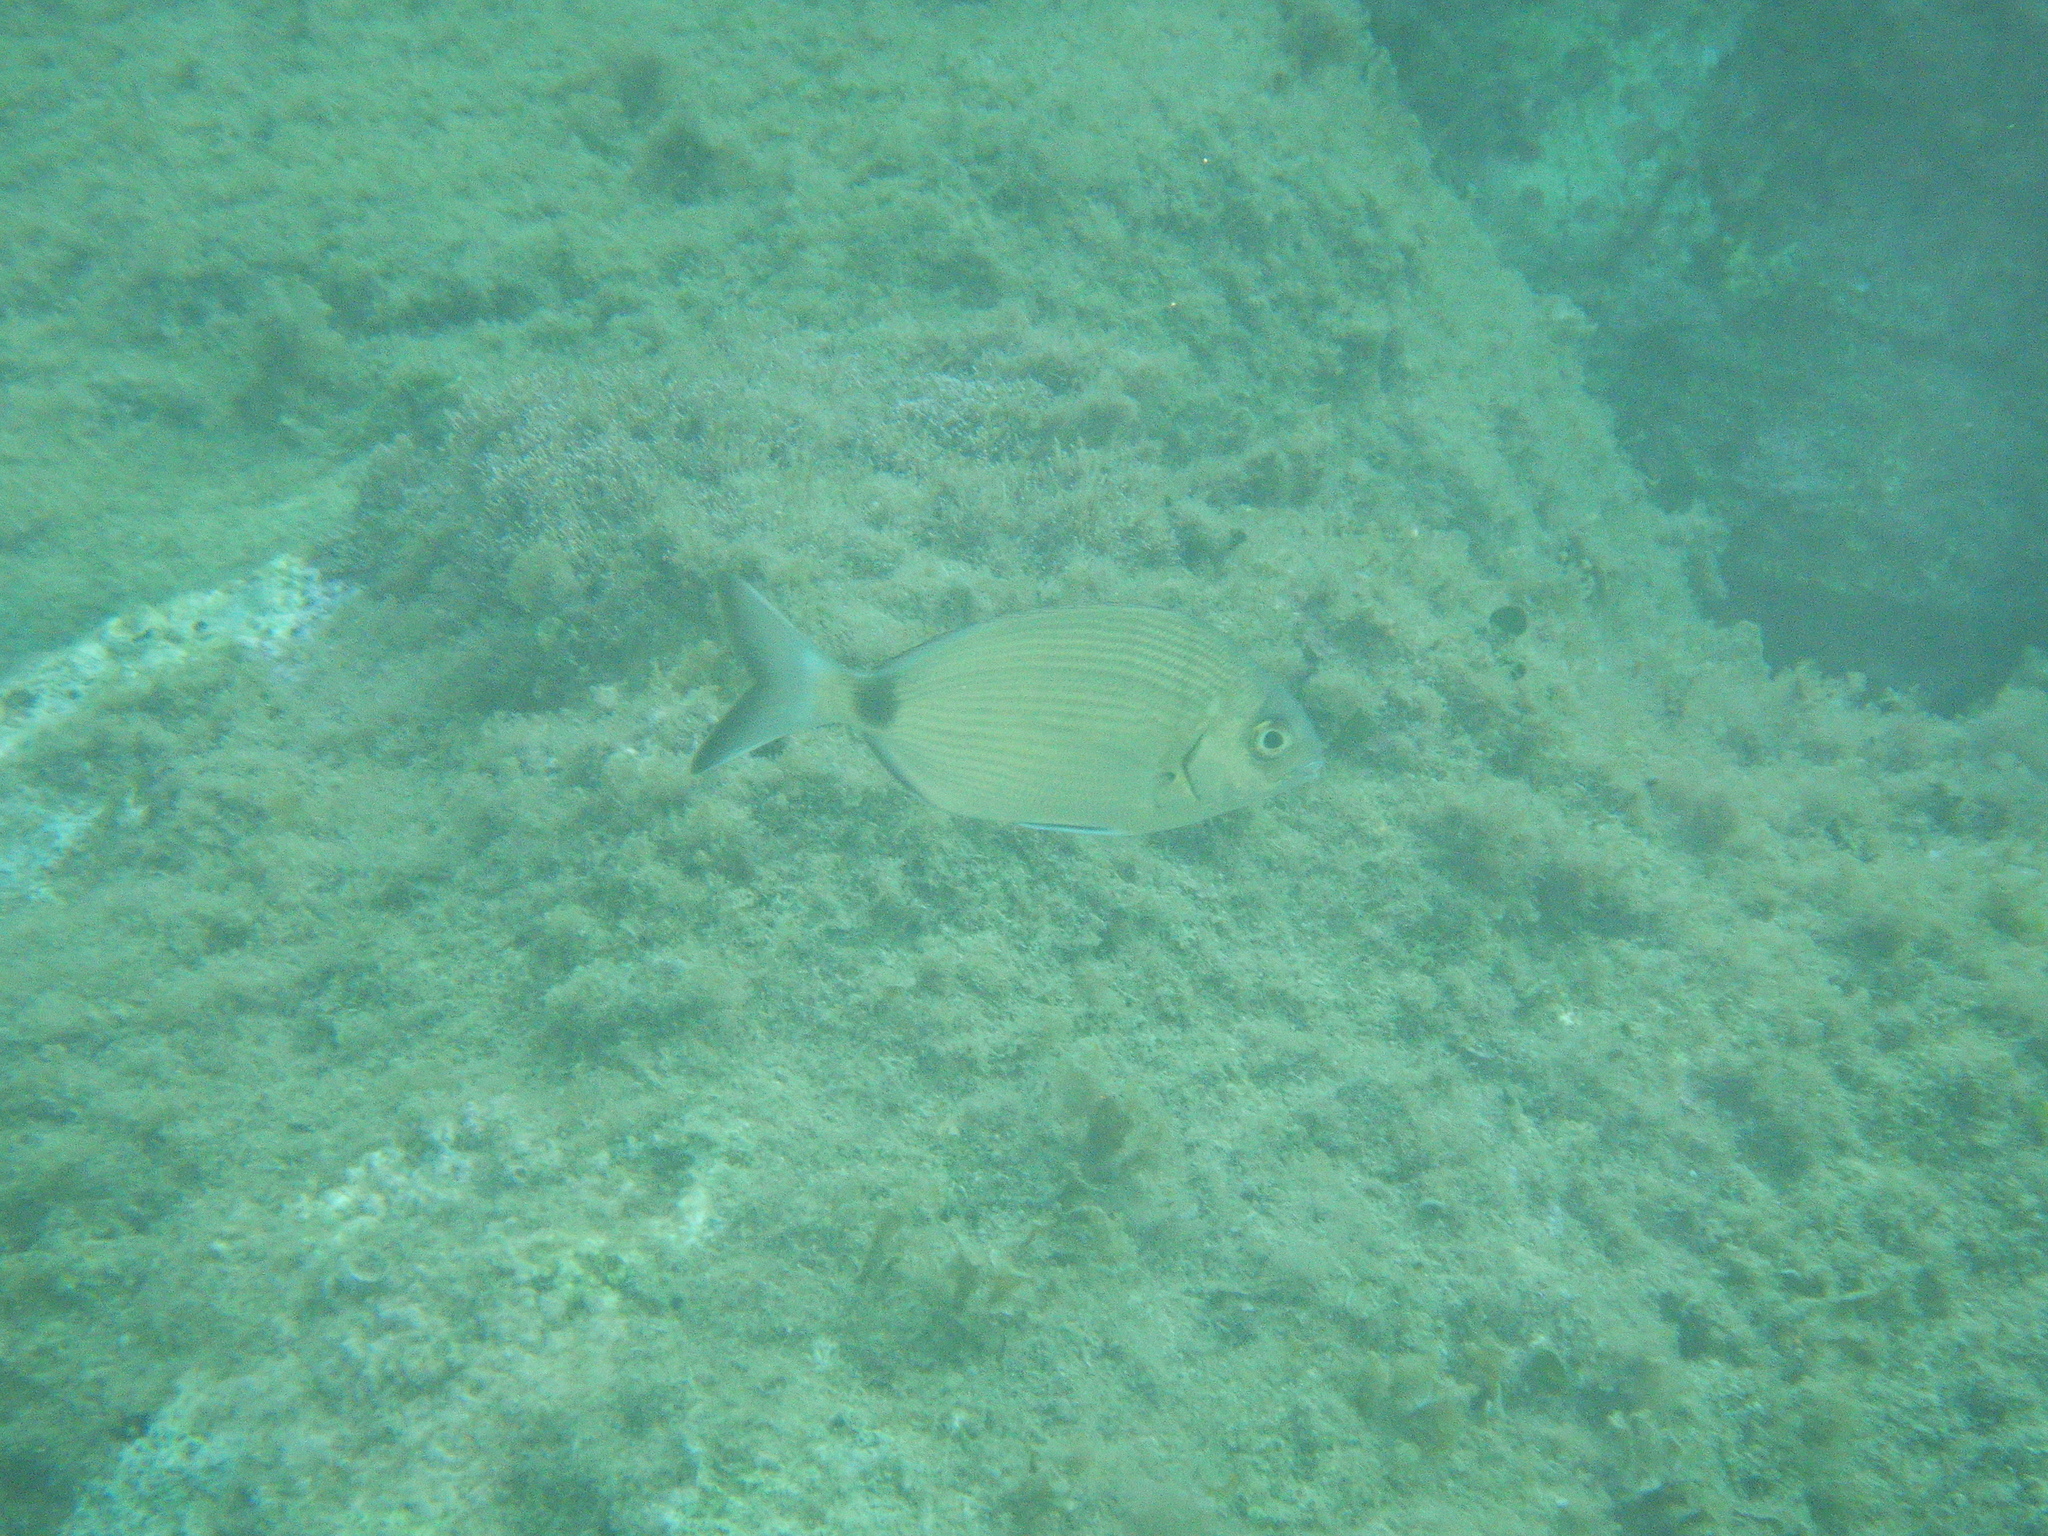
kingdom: Animalia
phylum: Chordata
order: Perciformes
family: Sparidae
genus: Diplodus
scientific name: Diplodus sargus
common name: White seabream
